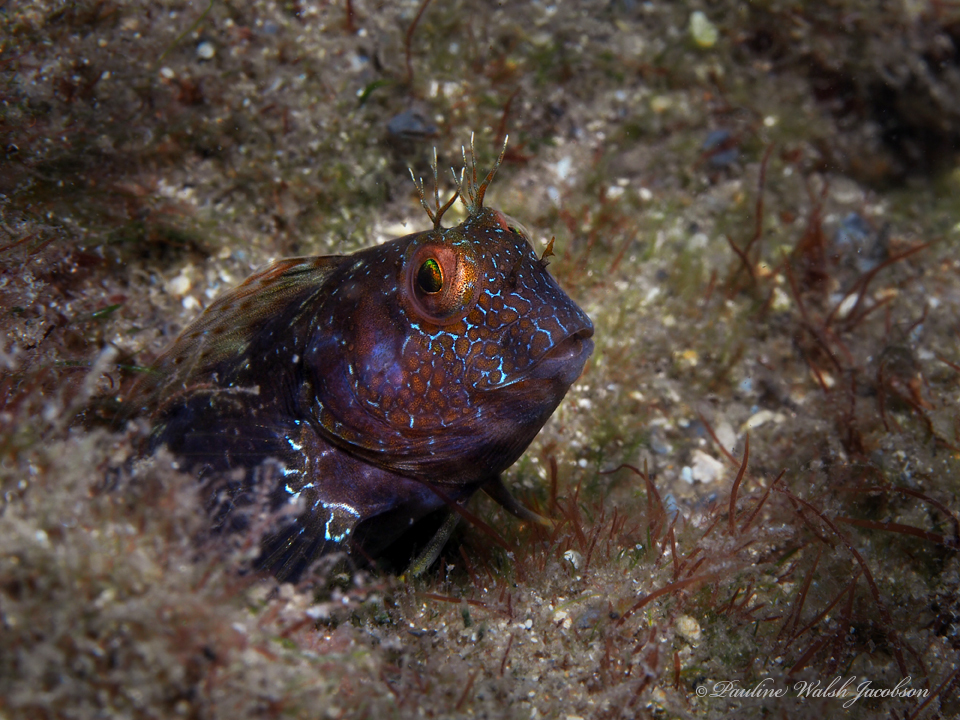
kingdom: Animalia
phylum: Chordata
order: Perciformes
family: Blenniidae
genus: Parablennius
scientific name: Parablennius marmoreus
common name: Seaweed blenny
